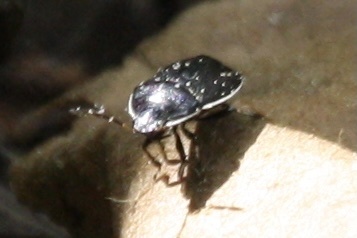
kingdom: Animalia
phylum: Arthropoda
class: Insecta
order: Hemiptera
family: Cydnidae
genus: Sehirus
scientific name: Sehirus cinctus
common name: White-margined burrower bug
